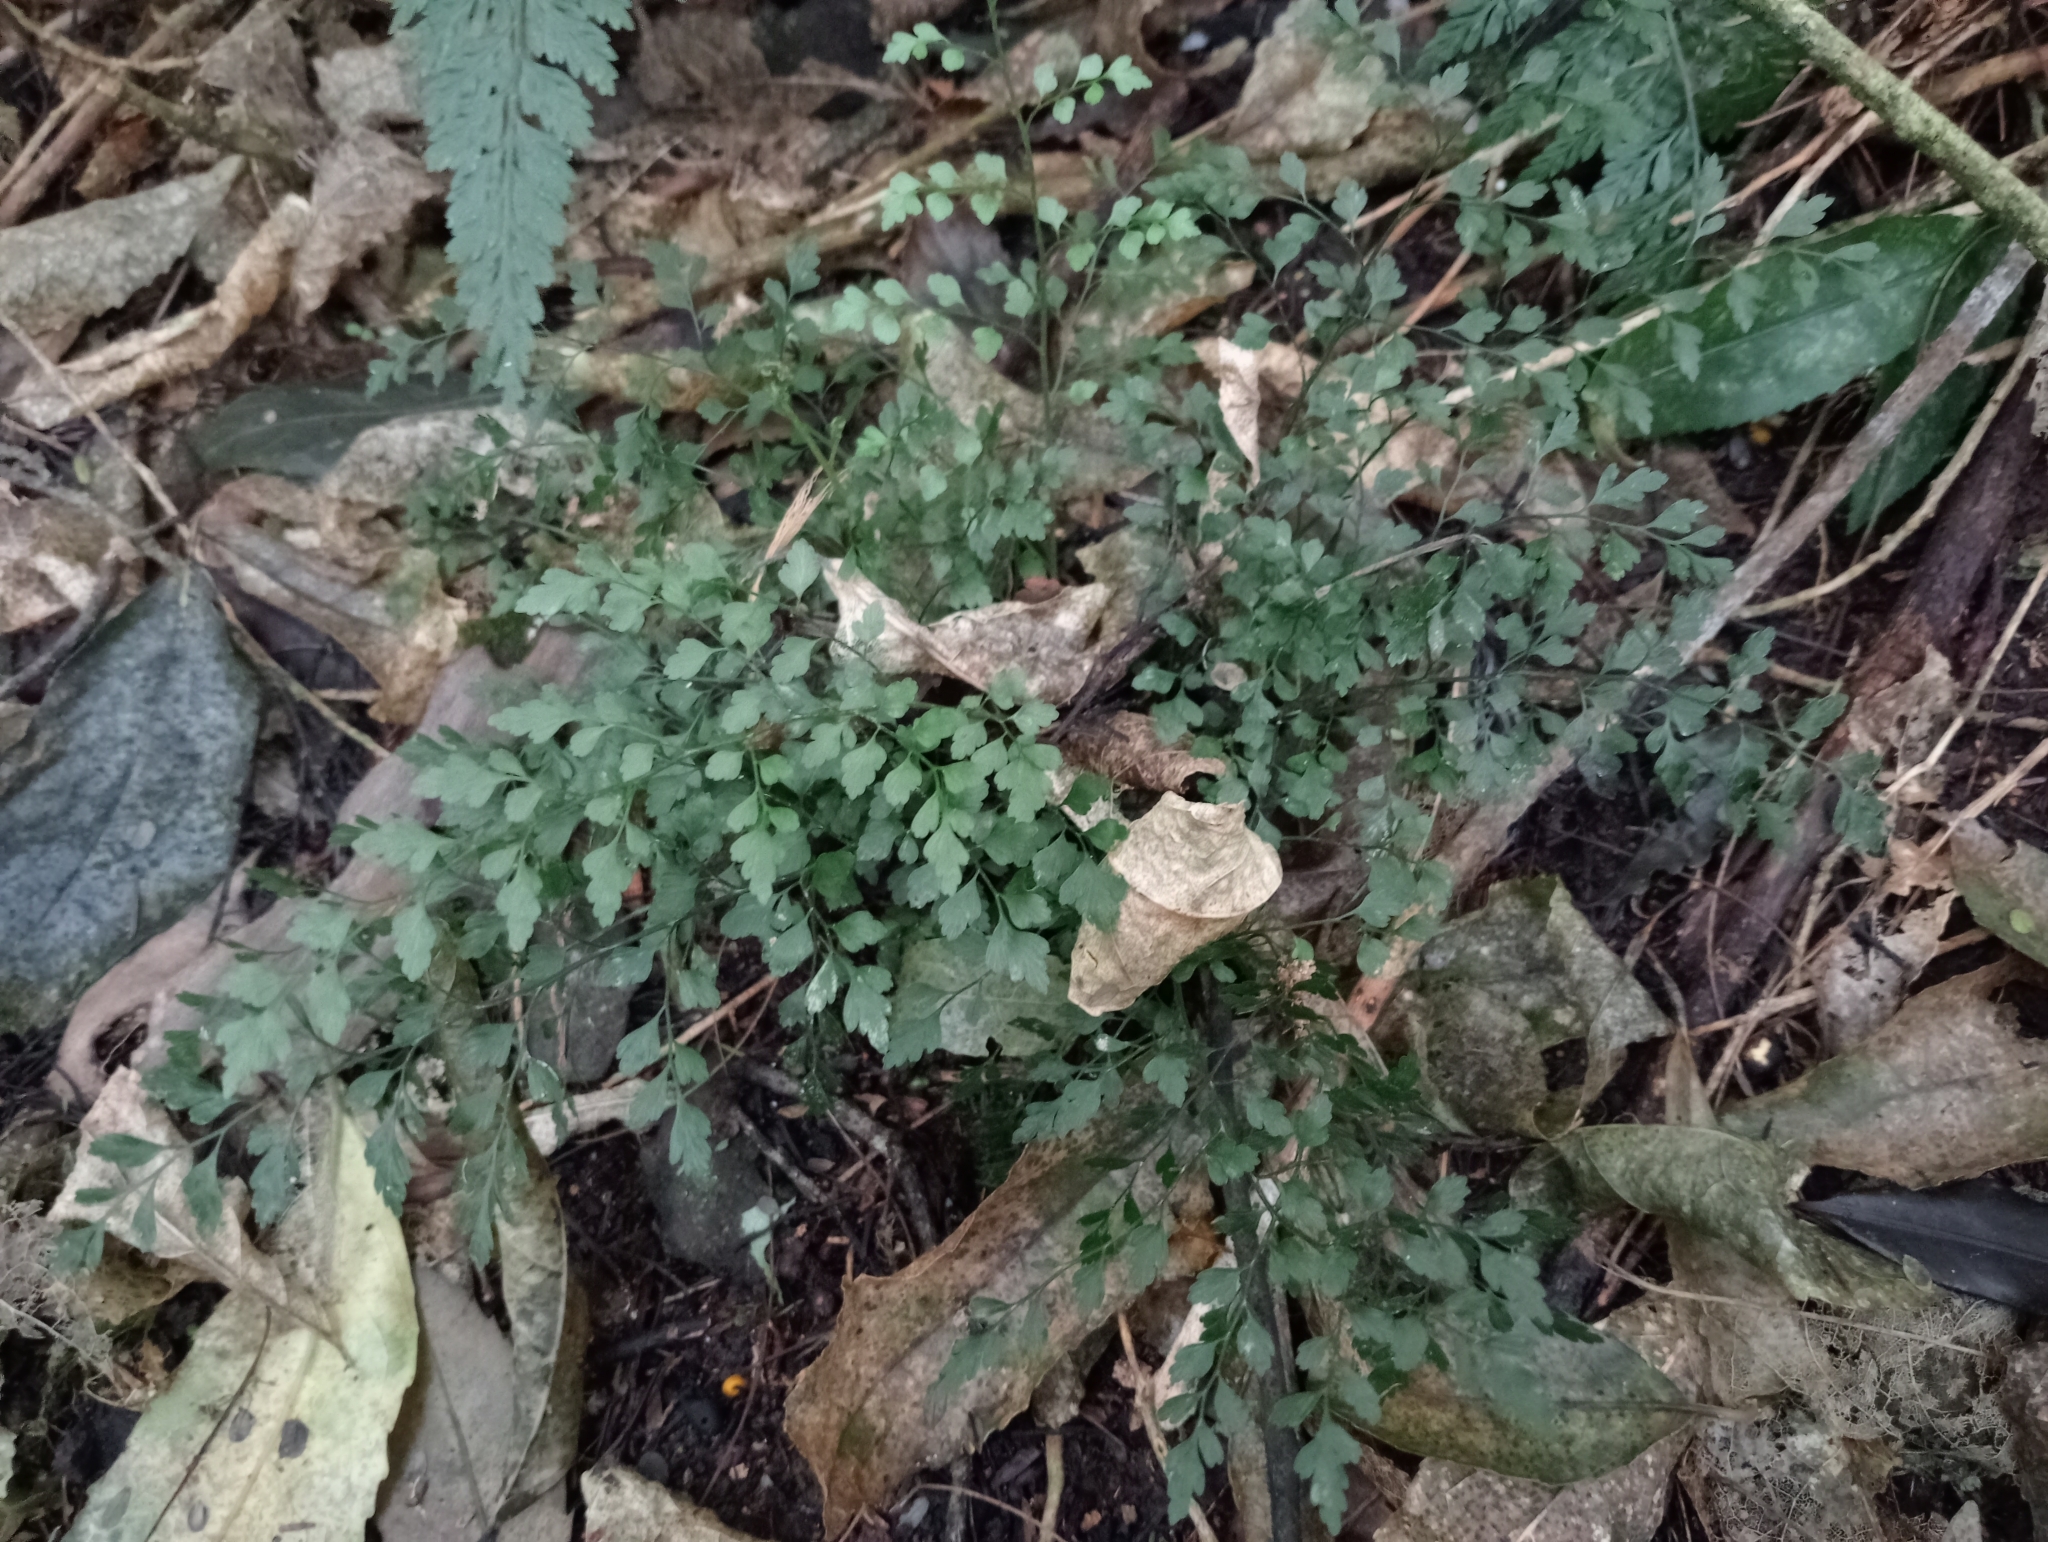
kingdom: Plantae
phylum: Tracheophyta
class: Polypodiopsida
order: Polypodiales
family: Aspleniaceae
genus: Asplenium
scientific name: Asplenium hookerianum
